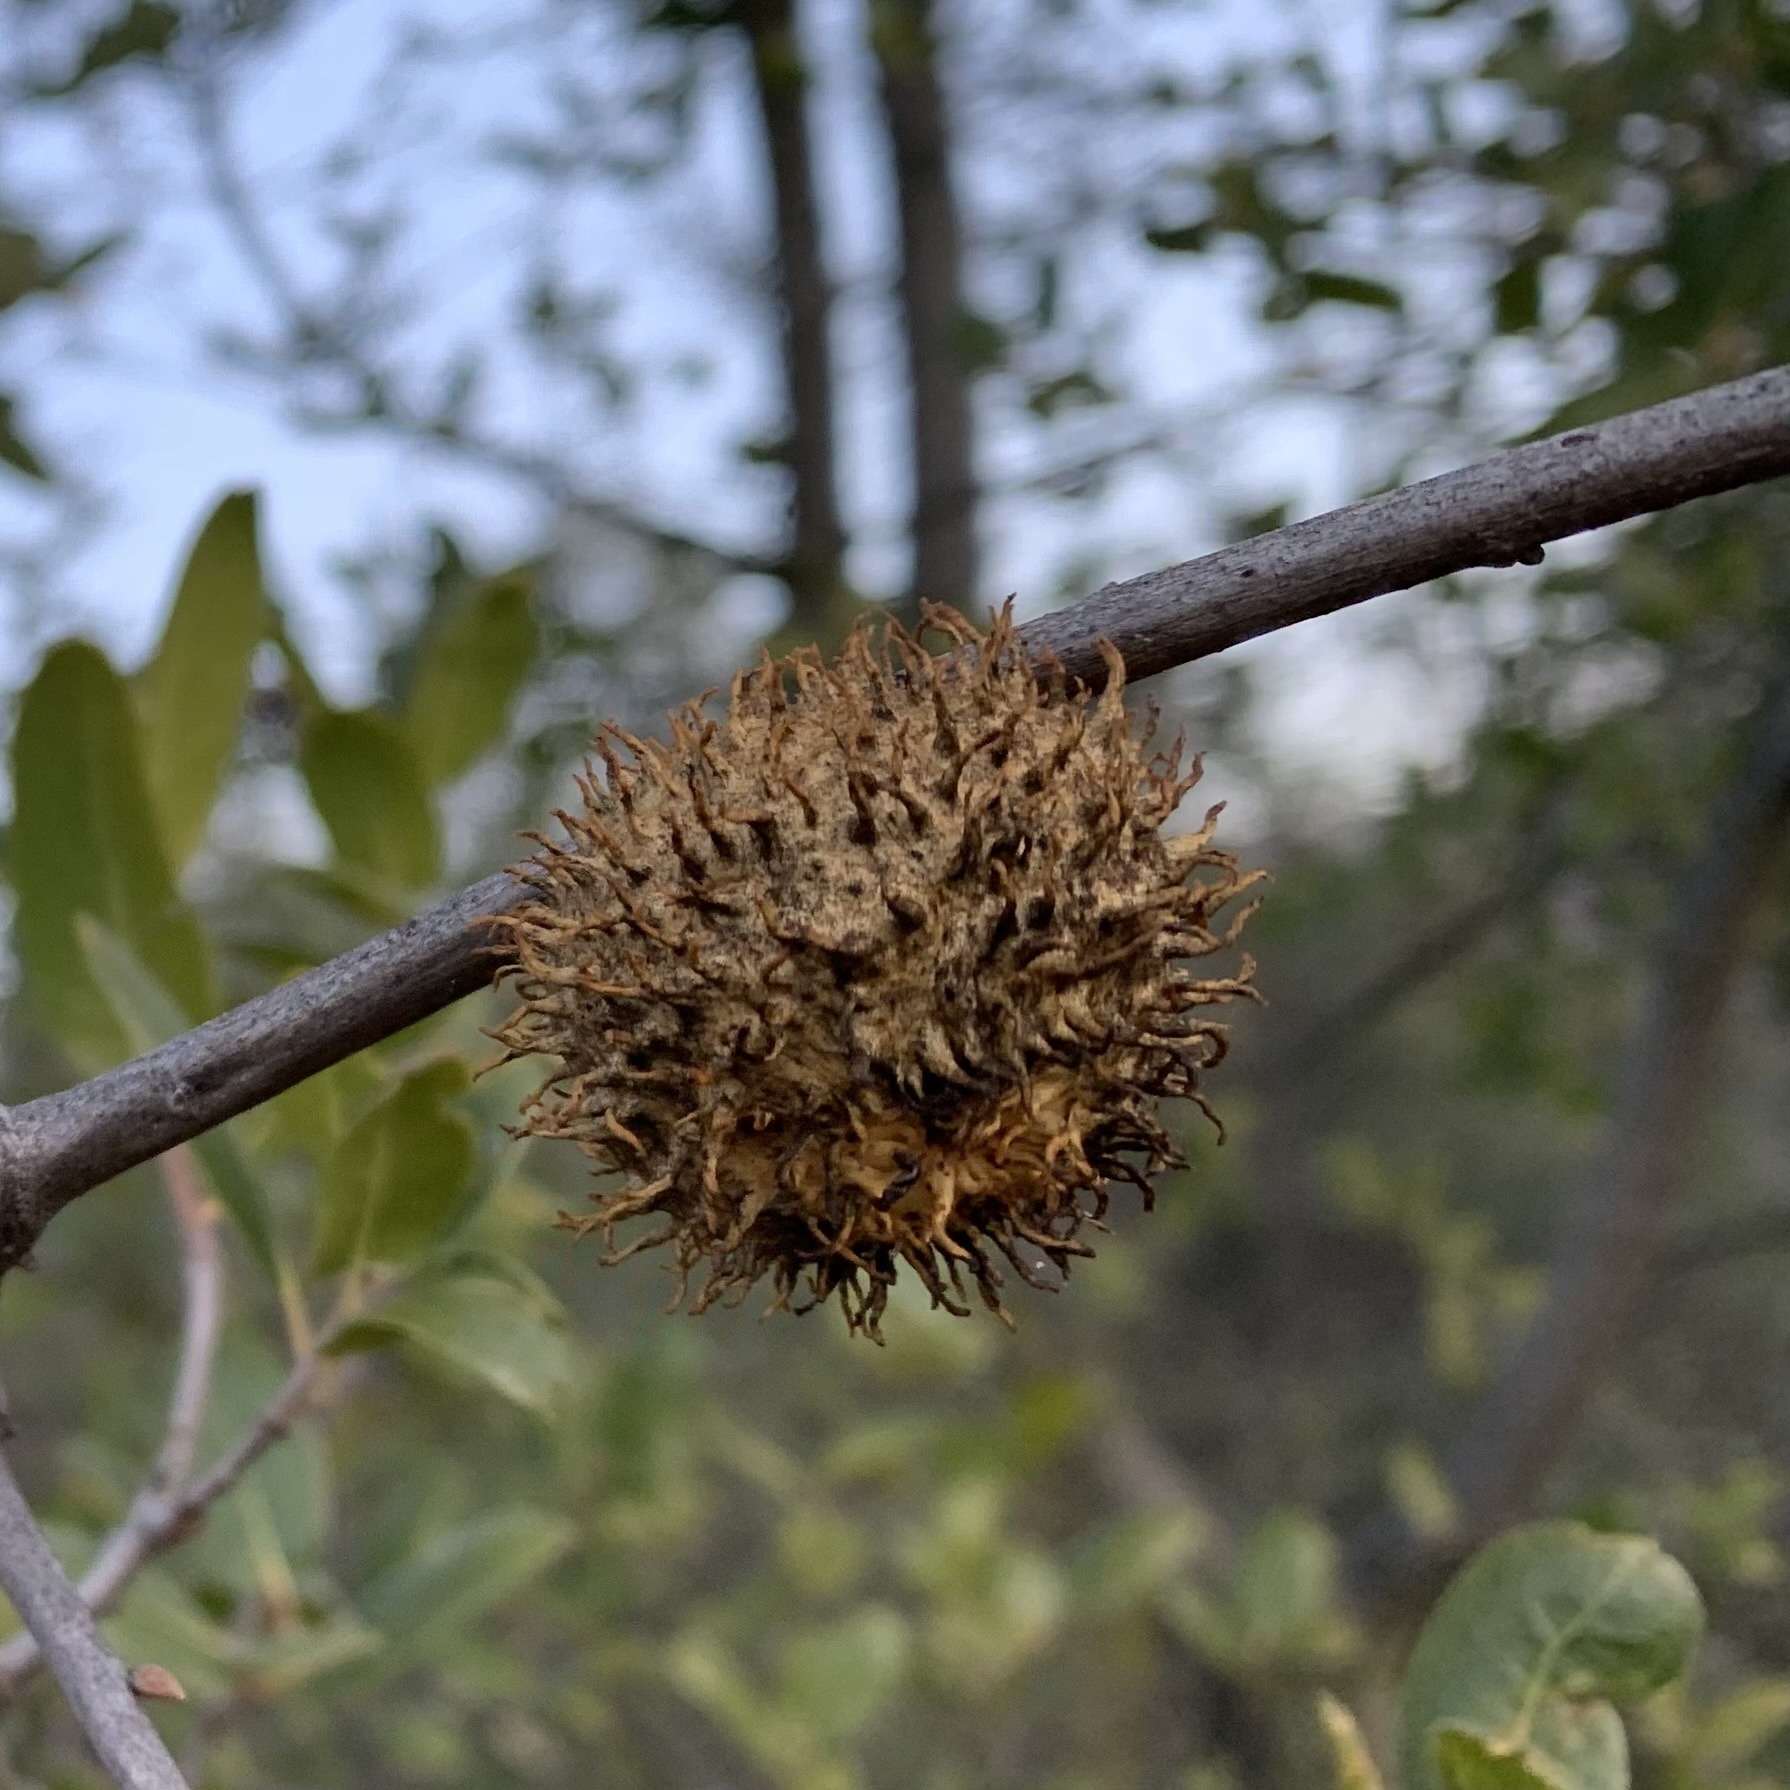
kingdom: Animalia
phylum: Arthropoda
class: Insecta
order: Hymenoptera
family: Cynipidae
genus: Amphibolips
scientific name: Amphibolips quercuspomiformis
